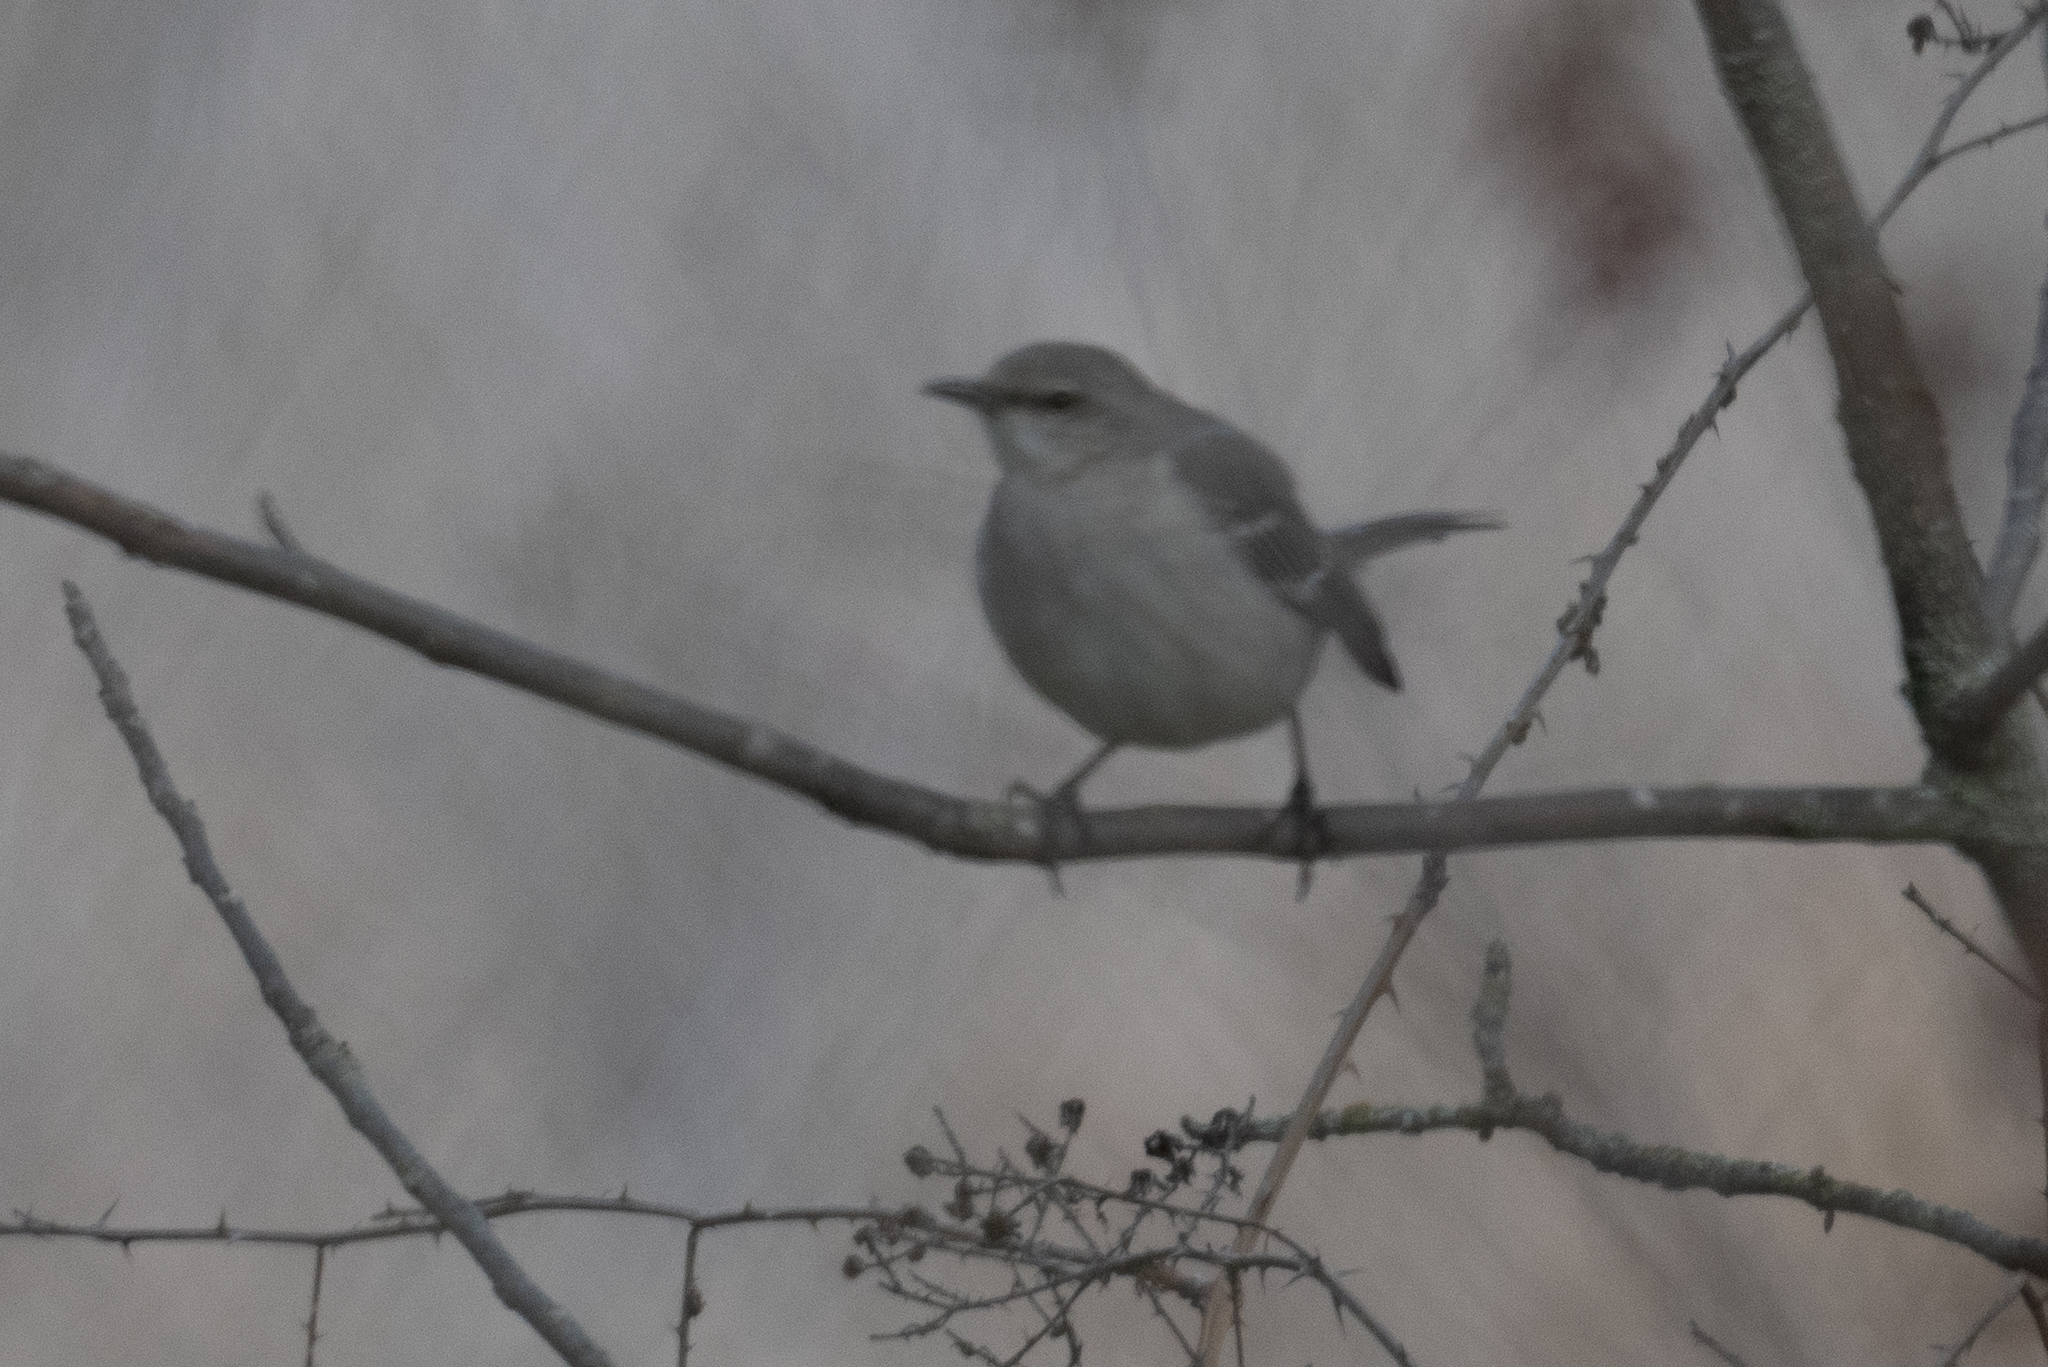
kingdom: Animalia
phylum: Chordata
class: Aves
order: Passeriformes
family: Mimidae
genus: Mimus
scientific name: Mimus polyglottos
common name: Northern mockingbird
